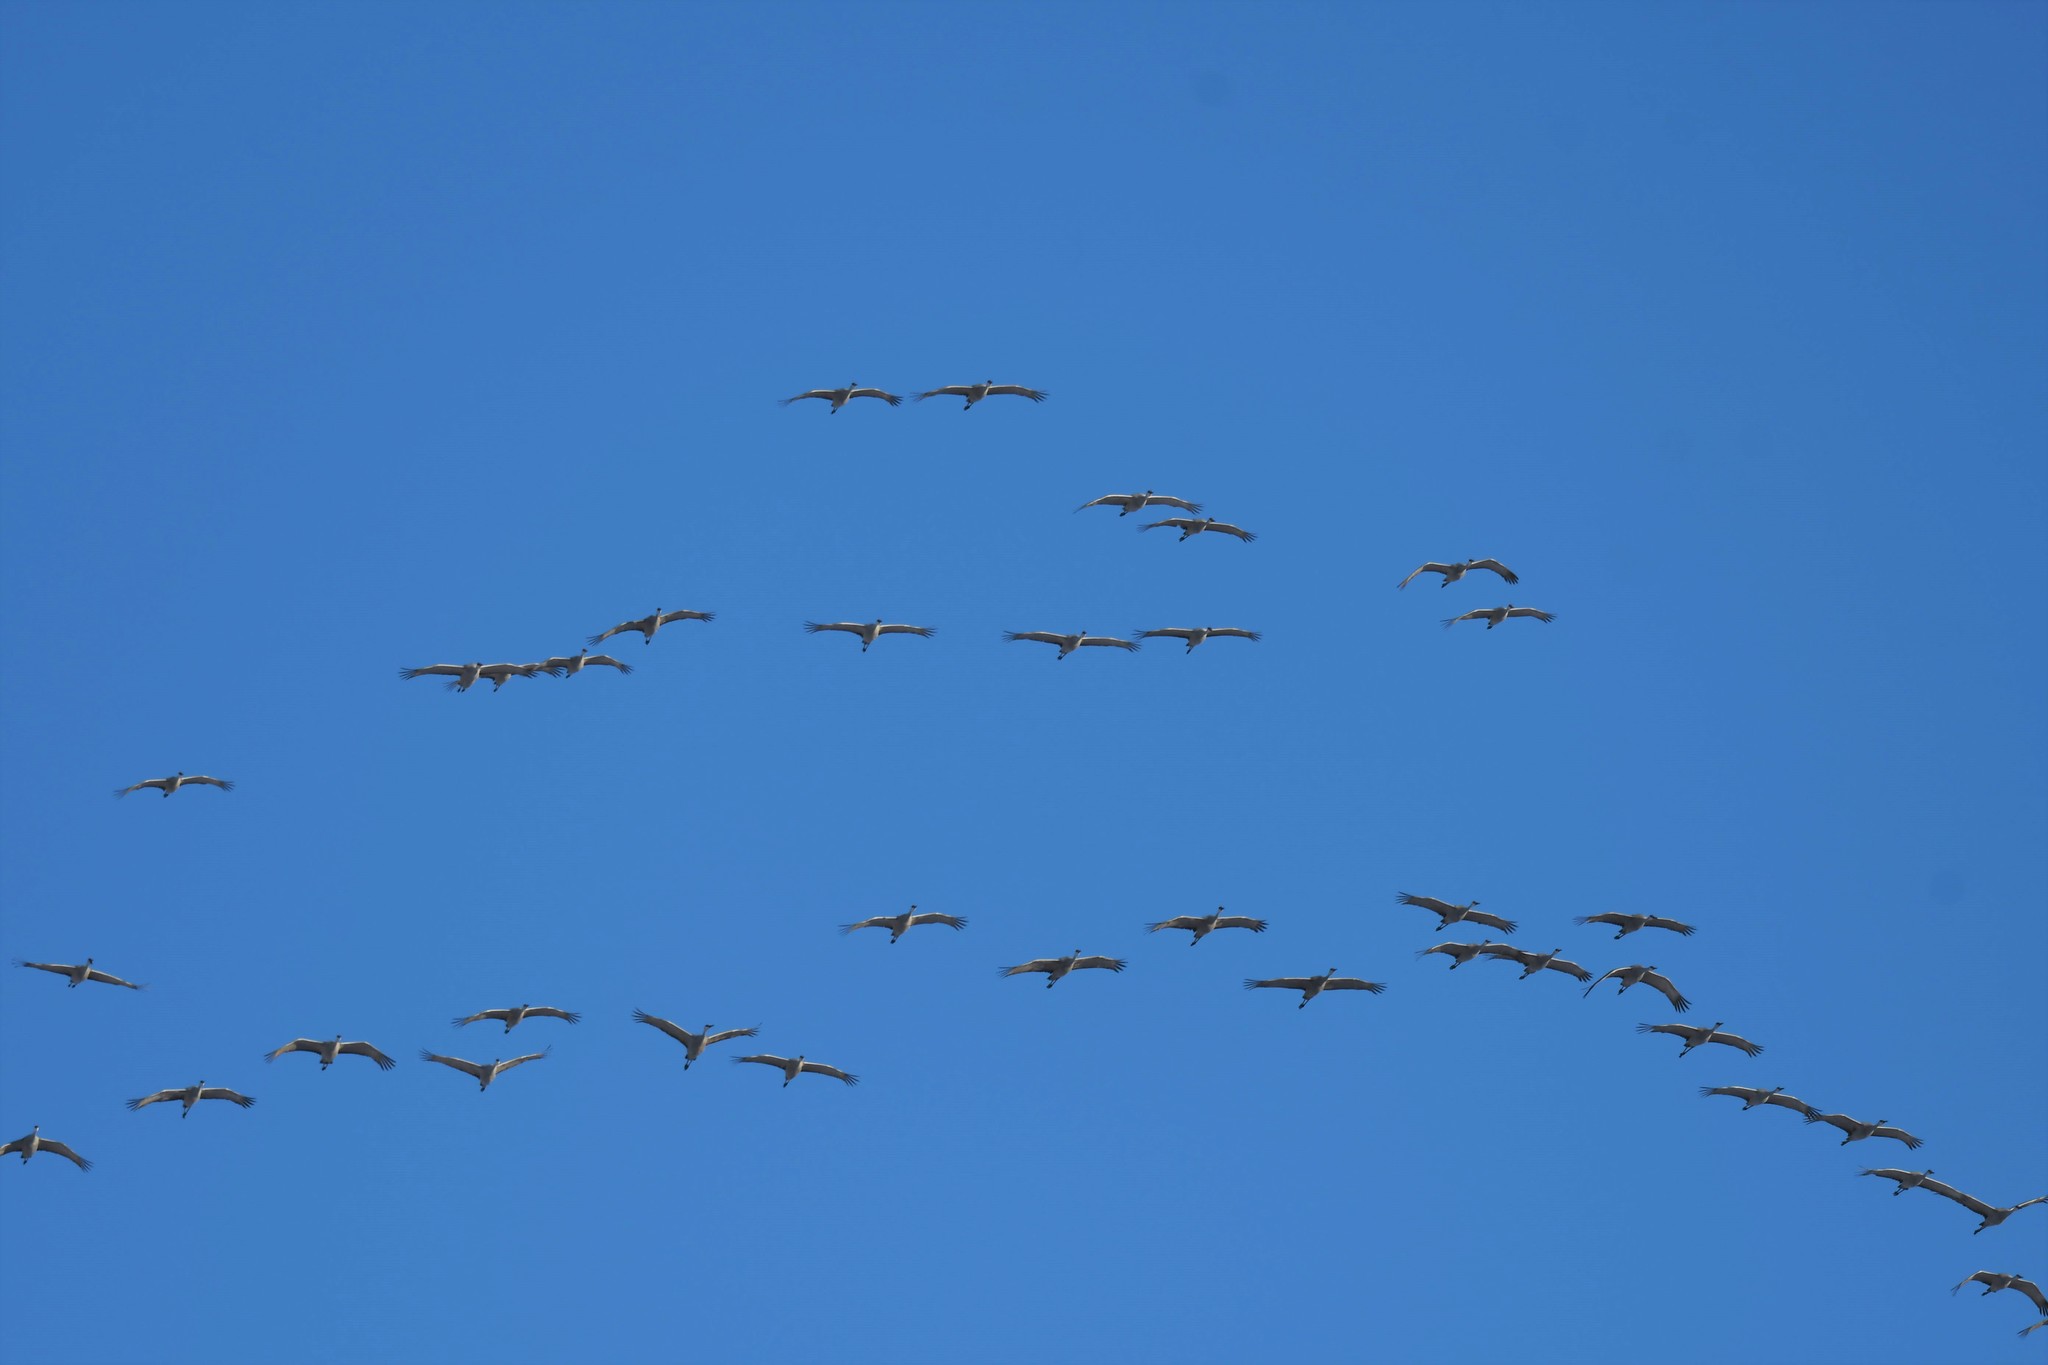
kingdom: Animalia
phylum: Chordata
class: Aves
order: Gruiformes
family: Gruidae
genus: Grus
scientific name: Grus canadensis
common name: Sandhill crane
